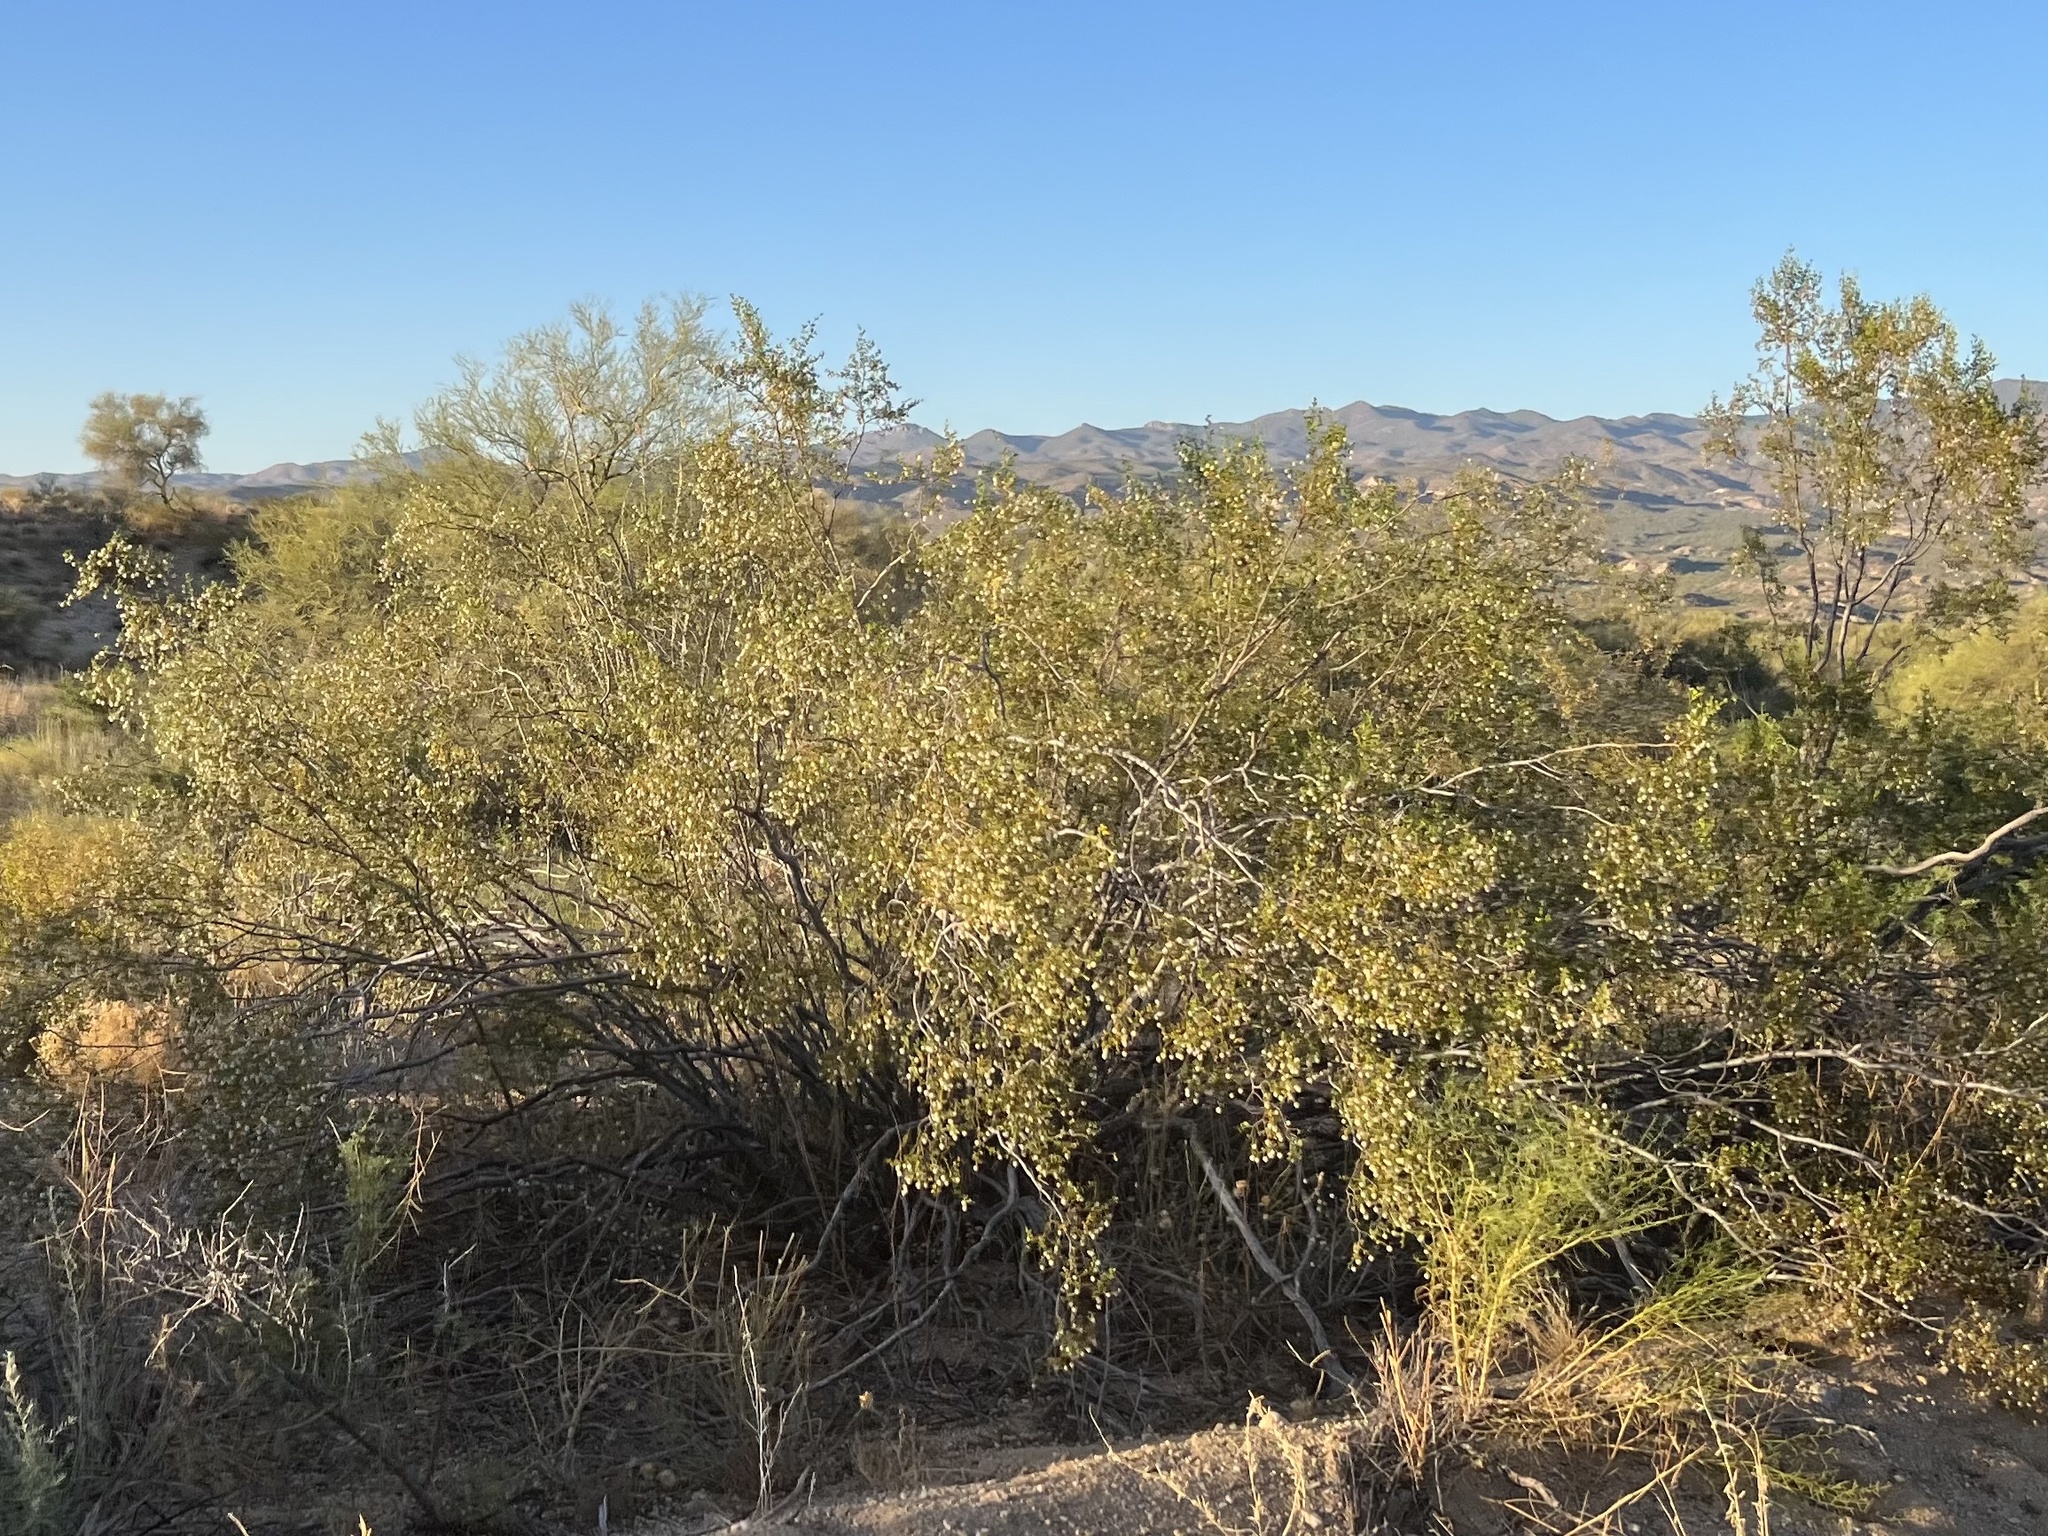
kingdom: Plantae
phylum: Tracheophyta
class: Magnoliopsida
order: Zygophyllales
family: Zygophyllaceae
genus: Larrea
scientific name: Larrea tridentata
